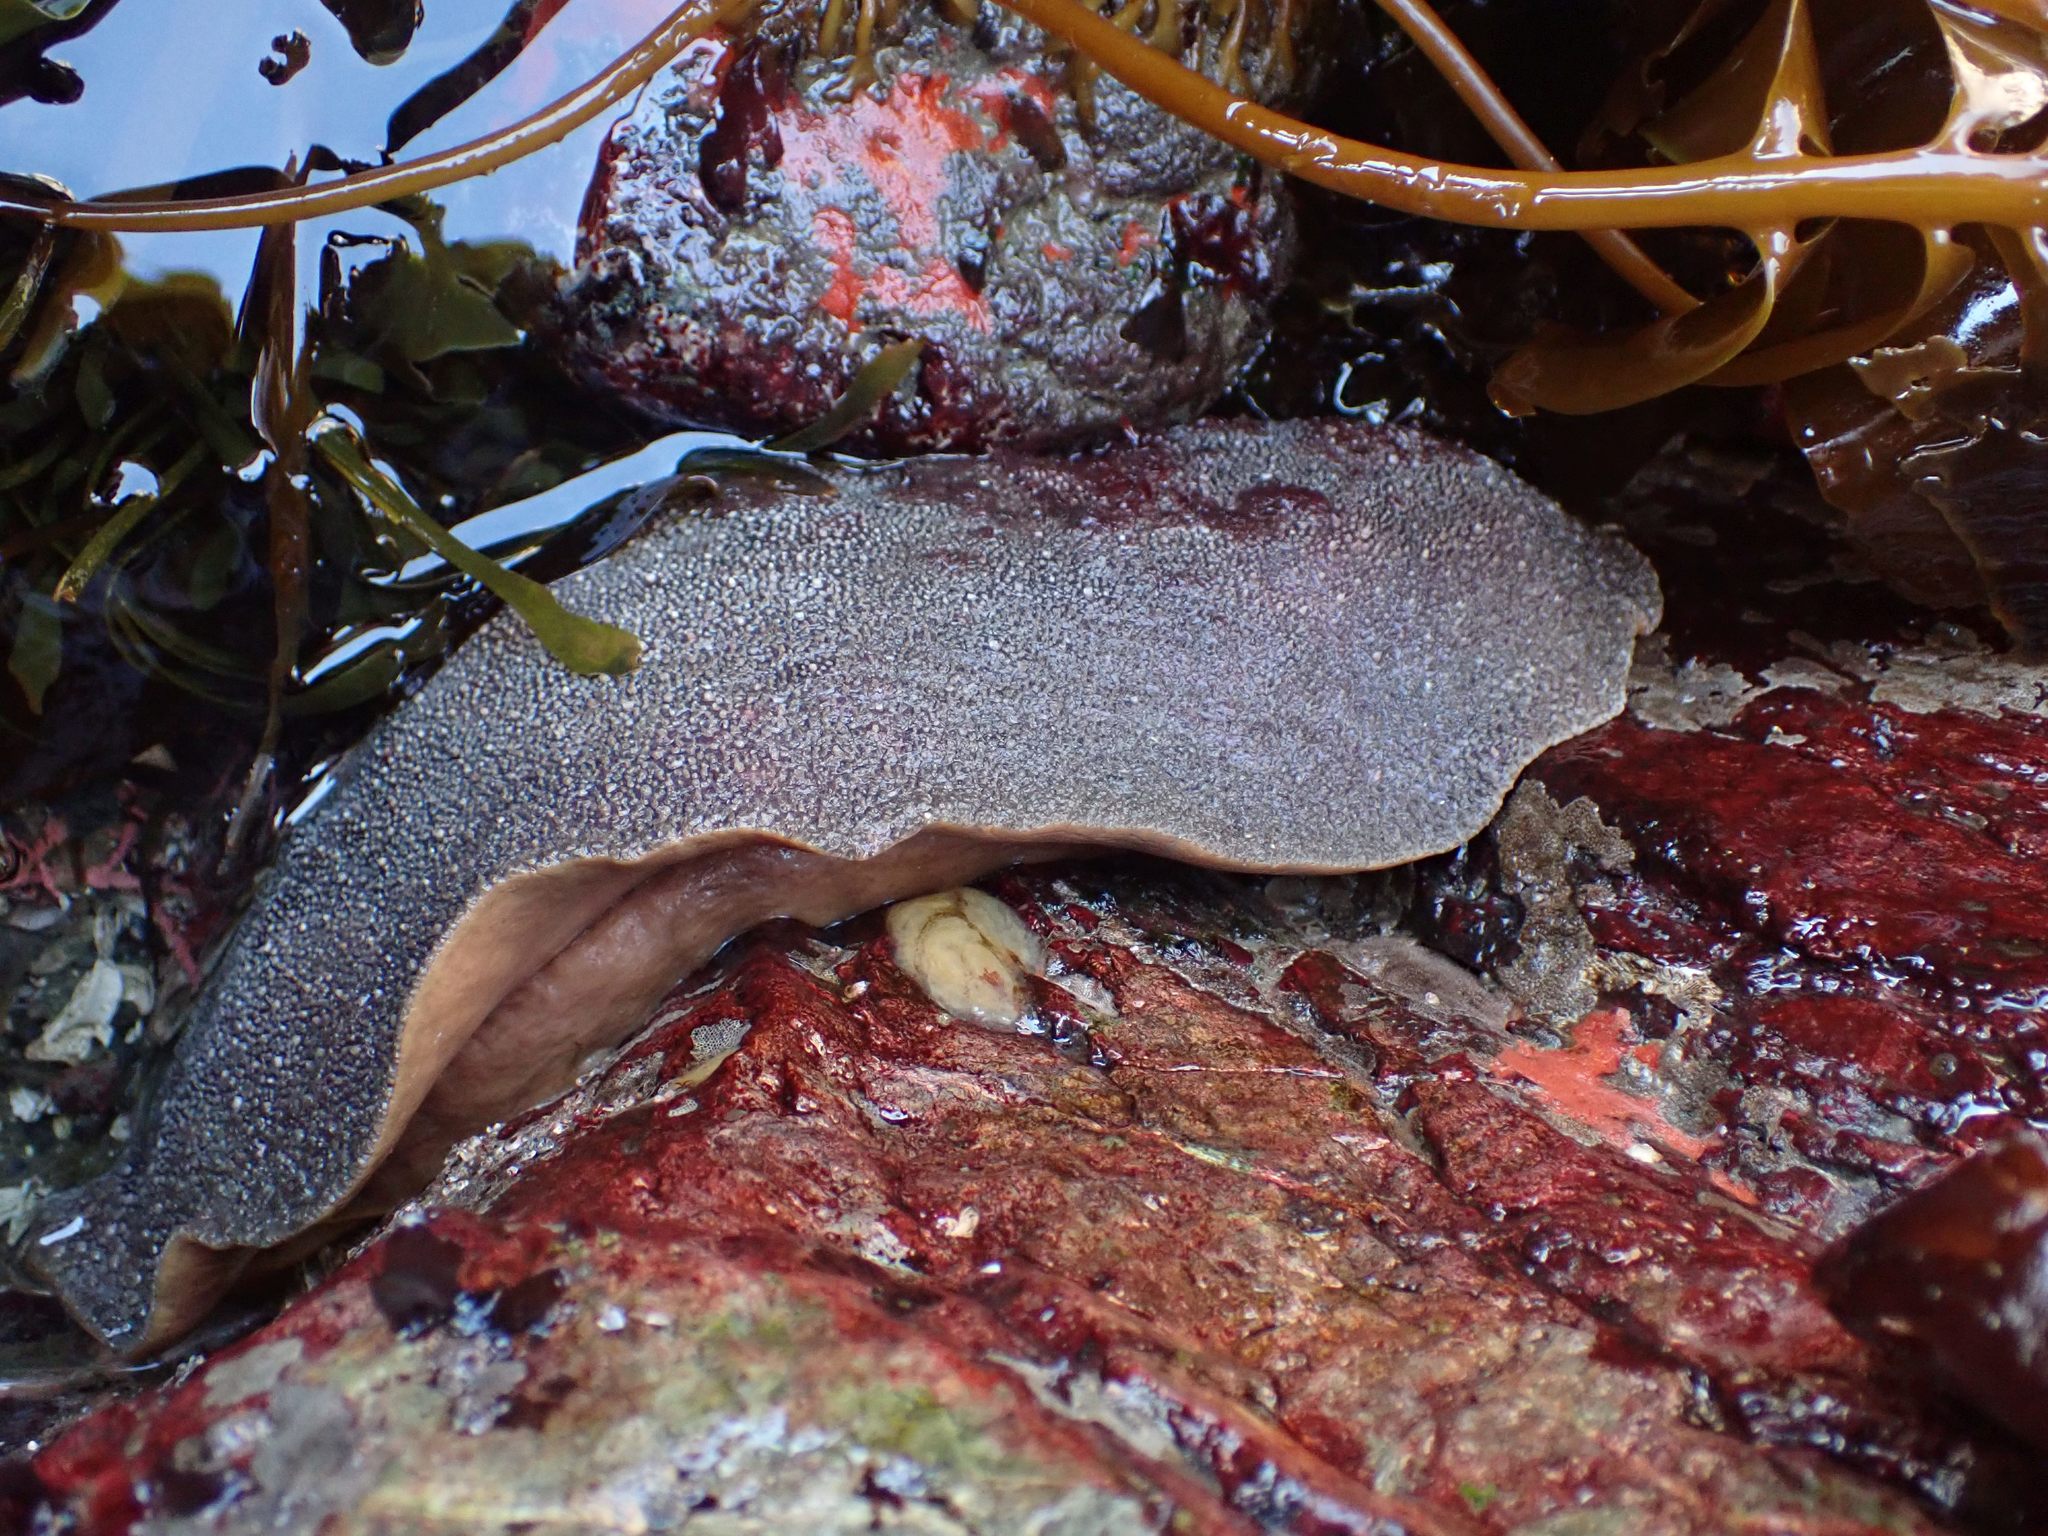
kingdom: Animalia
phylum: Mollusca
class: Polyplacophora
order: Chitonida
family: Acanthochitonidae
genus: Cryptochiton
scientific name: Cryptochiton stelleri
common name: Giant pacific chiton
